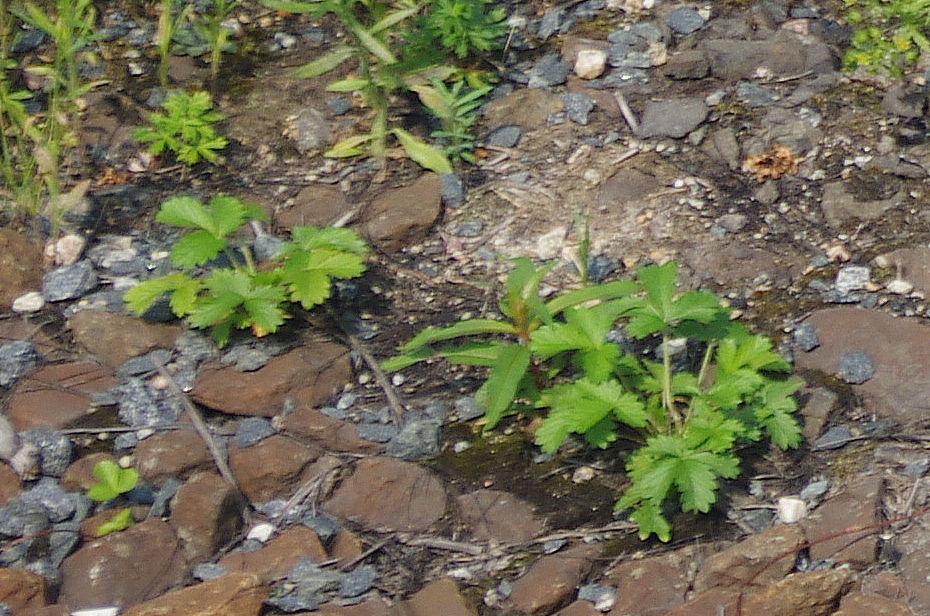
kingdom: Plantae
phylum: Tracheophyta
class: Magnoliopsida
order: Rosales
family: Rosaceae
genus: Potentilla
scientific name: Potentilla intermedia
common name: Downy cinquefoil
